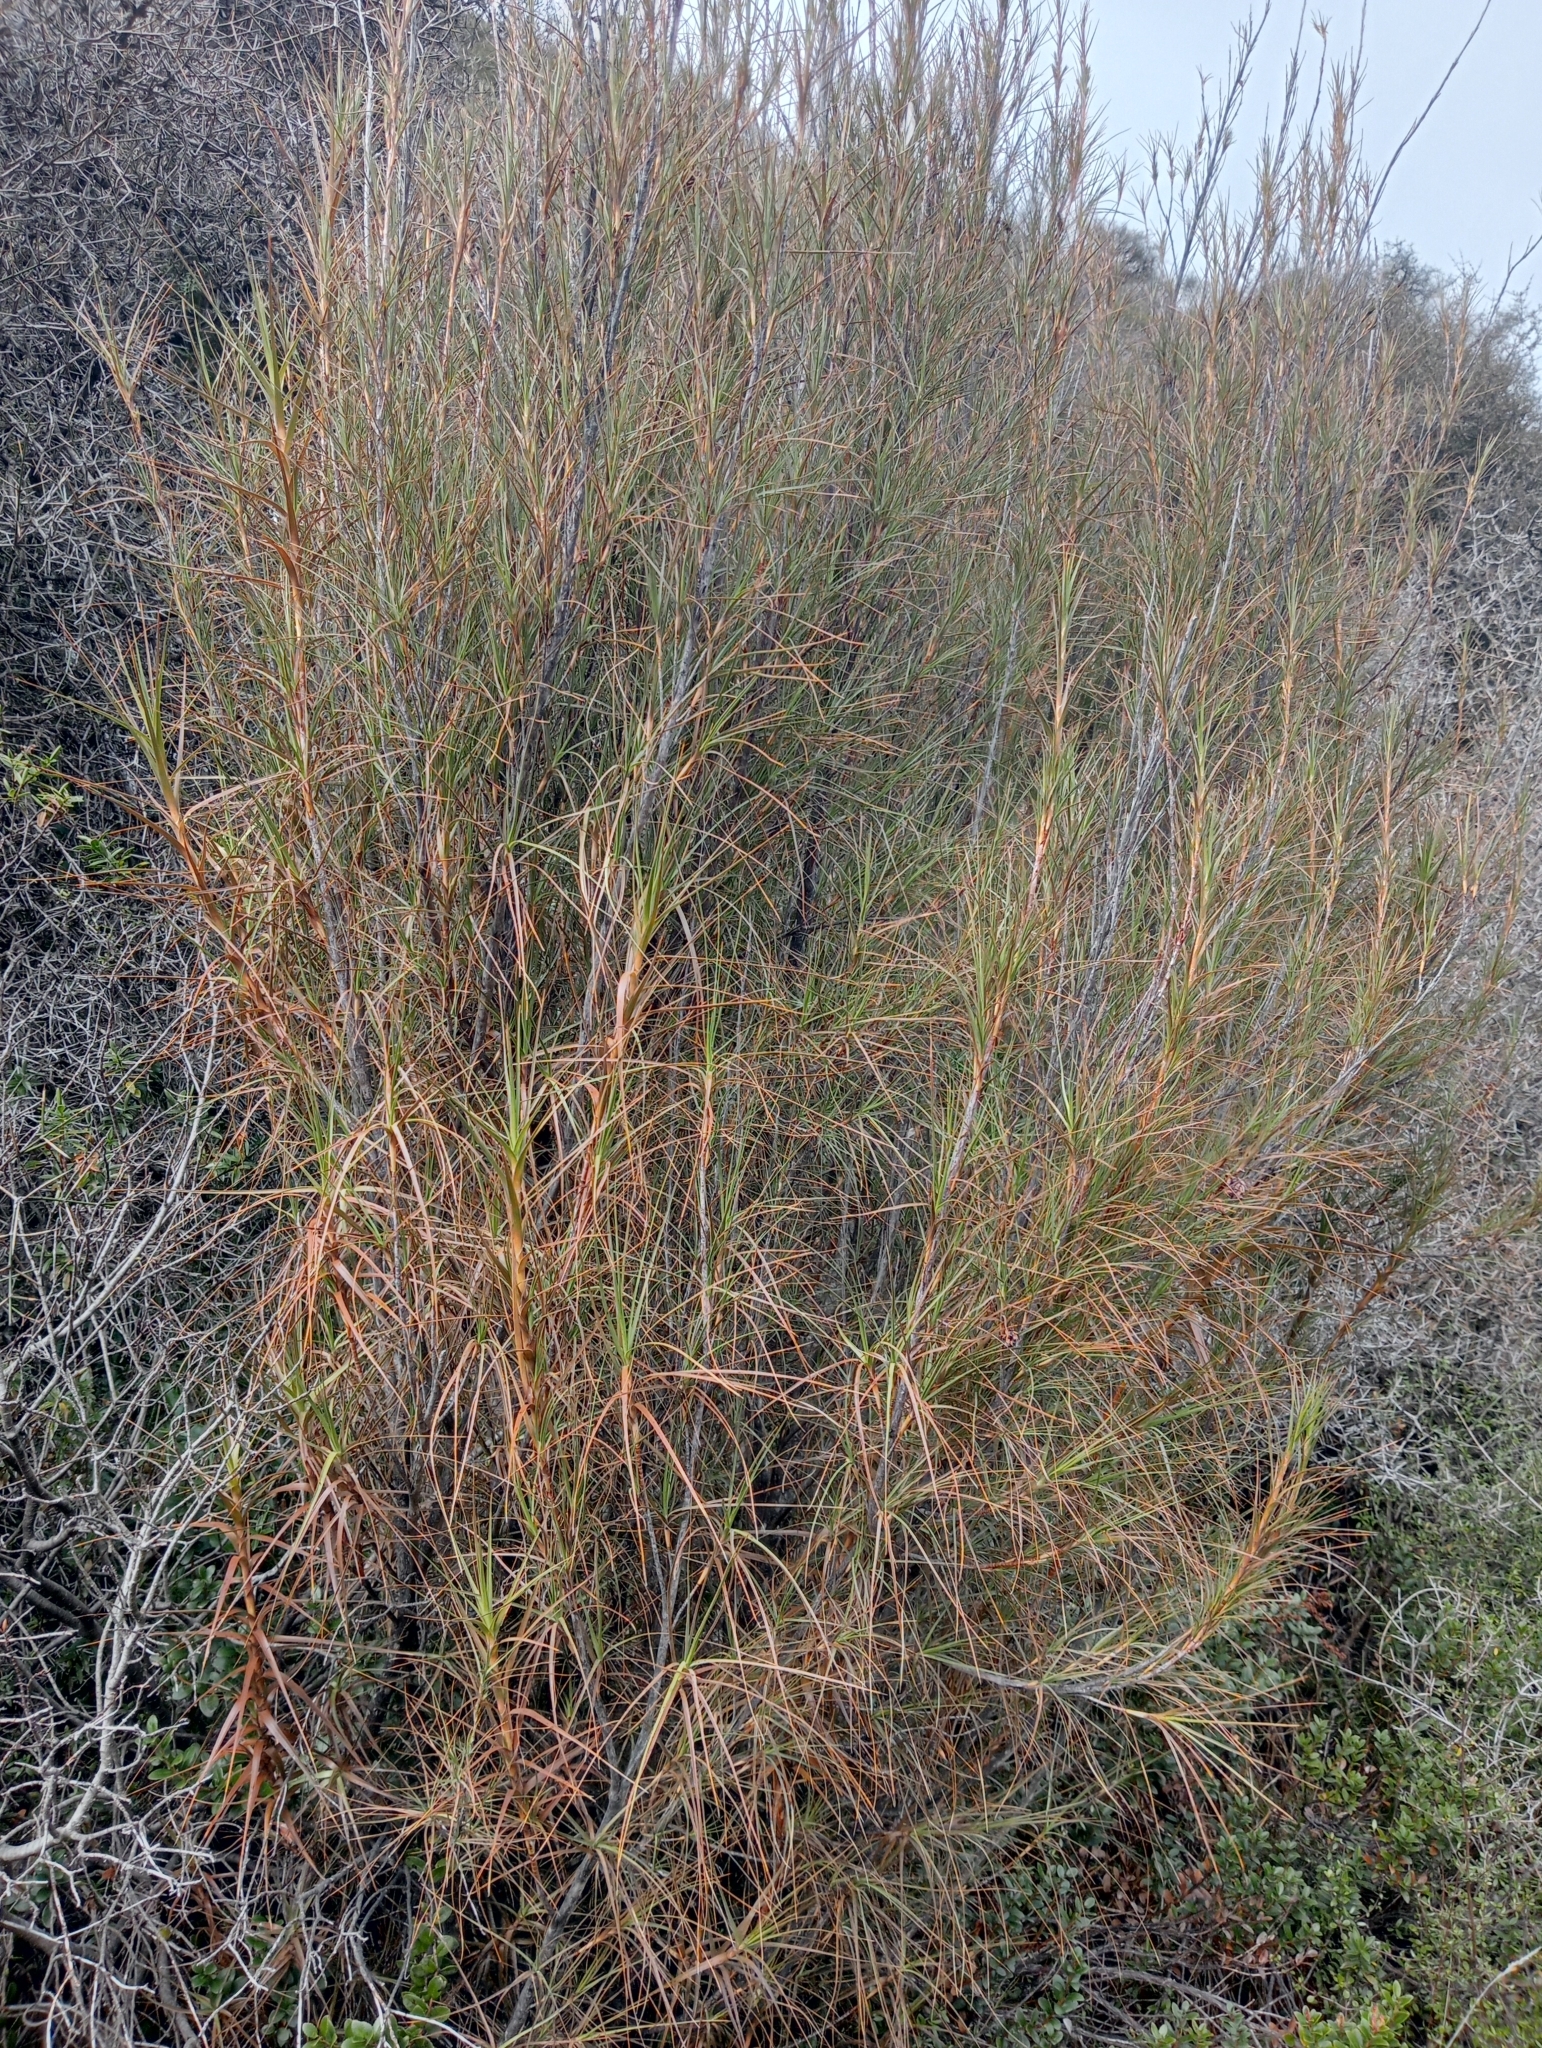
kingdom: Plantae
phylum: Tracheophyta
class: Magnoliopsida
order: Ericales
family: Ericaceae
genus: Dracophyllum
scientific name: Dracophyllum longifolium
